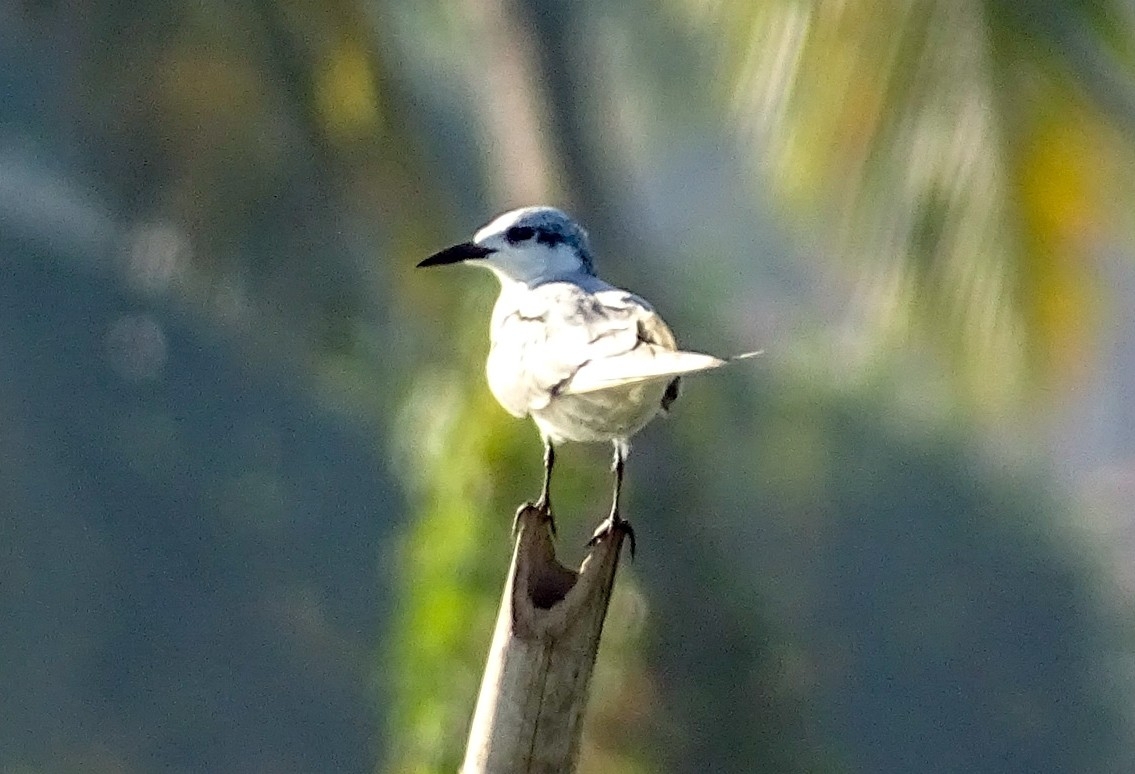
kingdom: Animalia
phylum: Chordata
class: Aves
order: Charadriiformes
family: Laridae
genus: Chlidonias
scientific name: Chlidonias hybrida
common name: Whiskered tern
